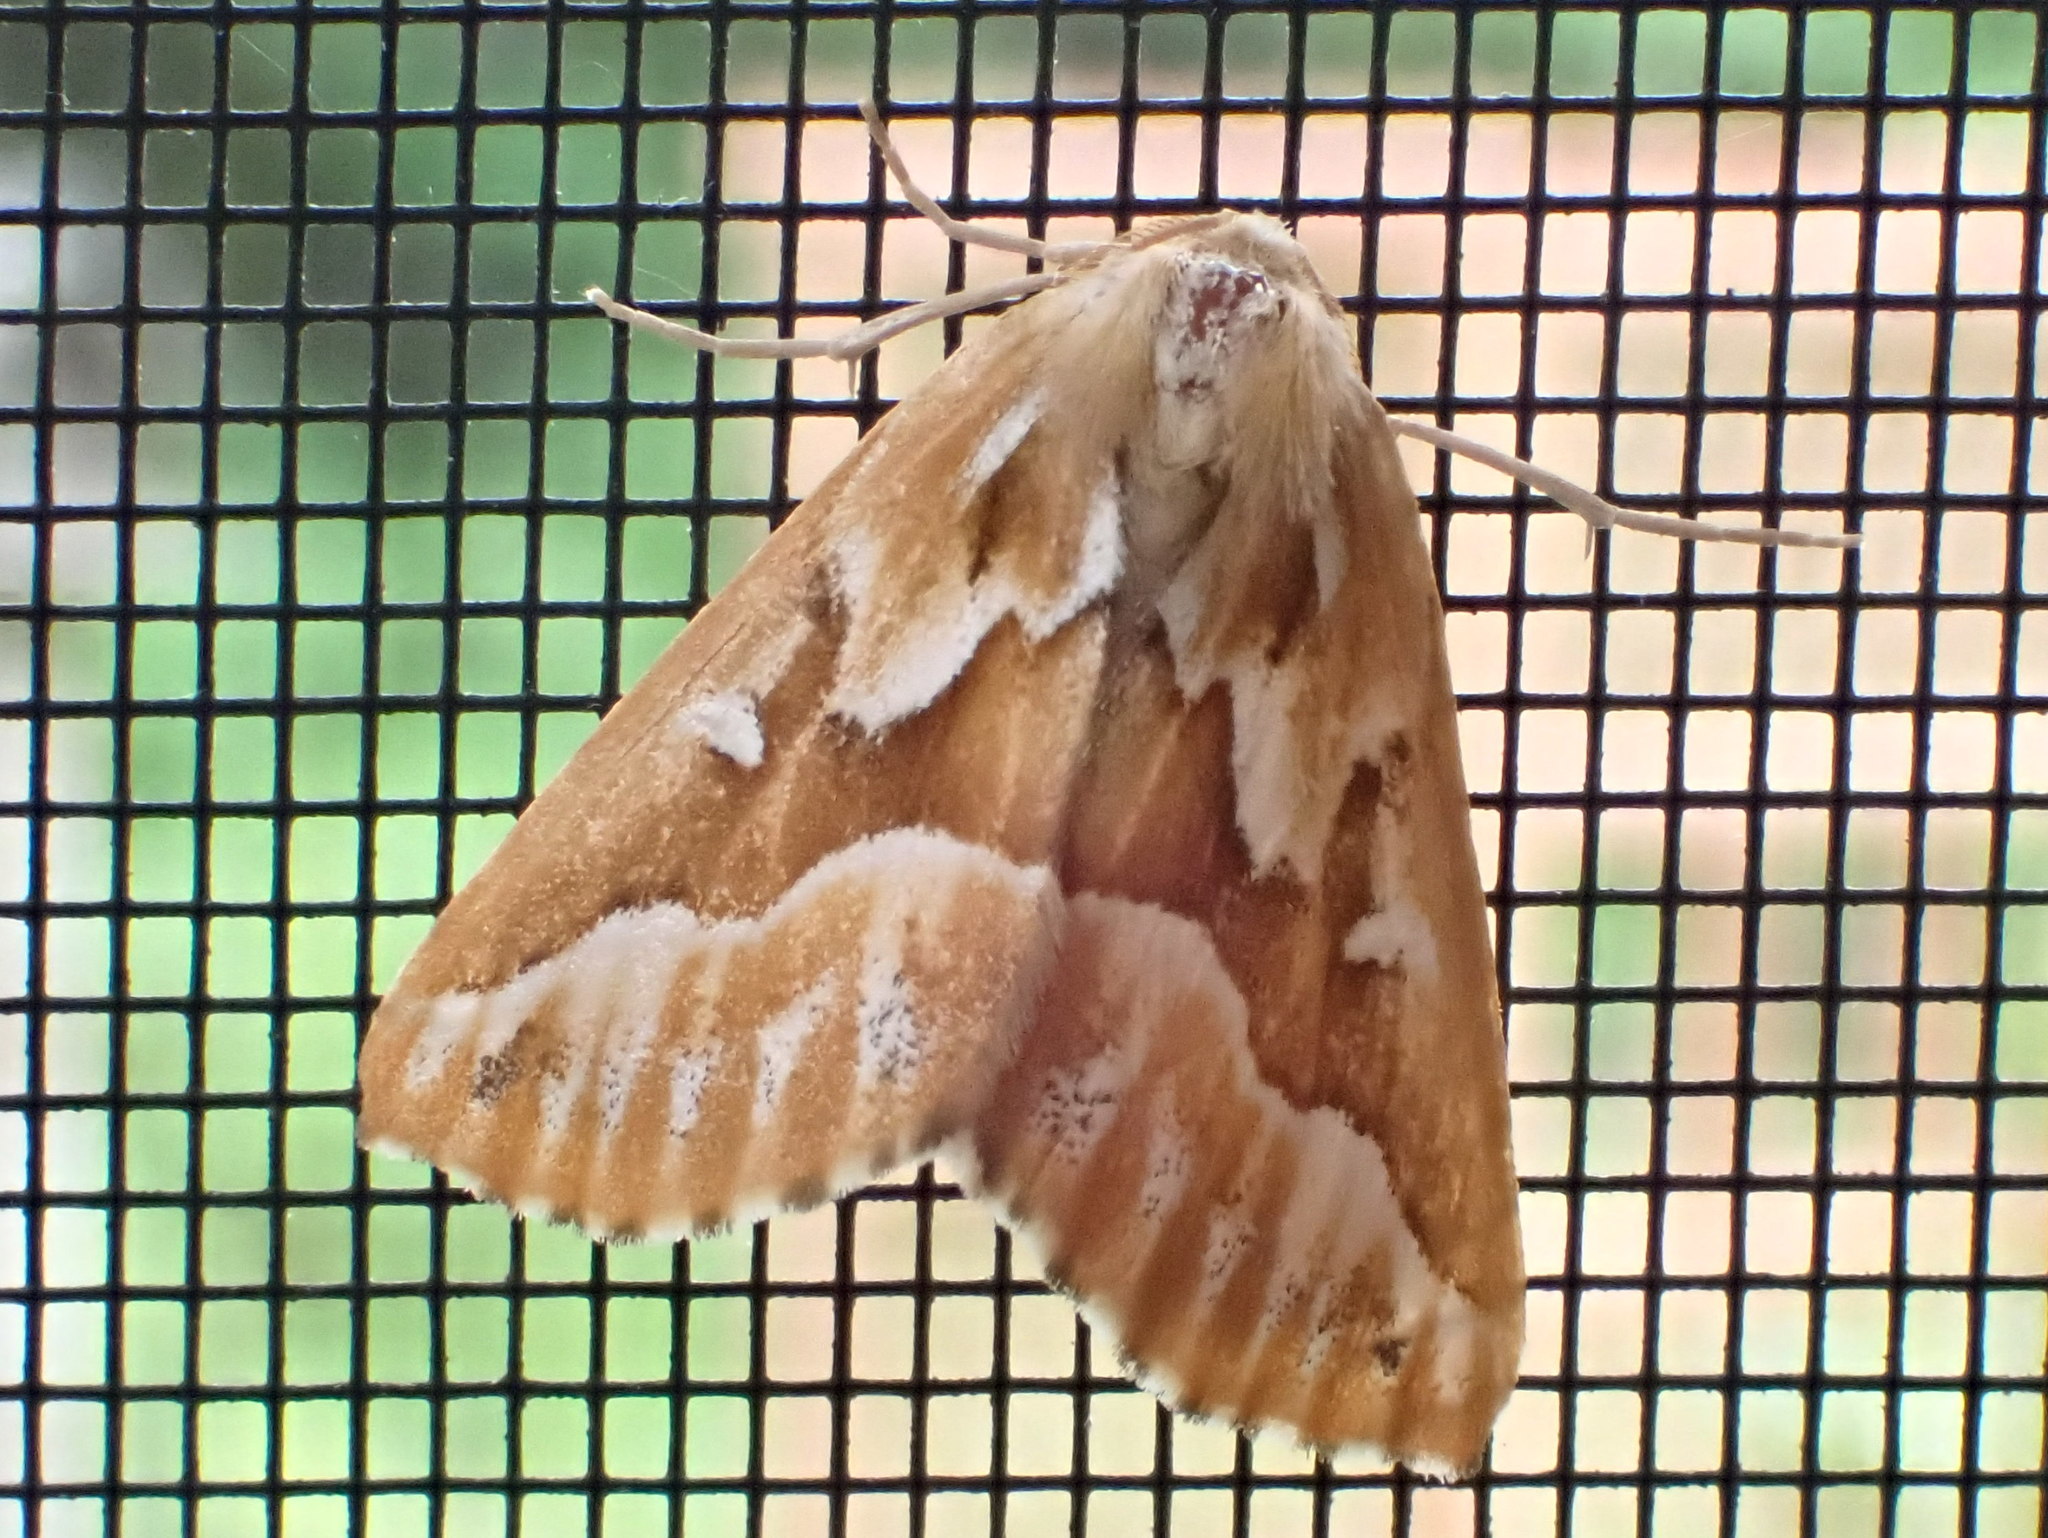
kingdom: Animalia
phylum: Arthropoda
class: Insecta
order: Lepidoptera
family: Geometridae
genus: Caripeta
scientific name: Caripeta piniata
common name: Northern pine looper moth
